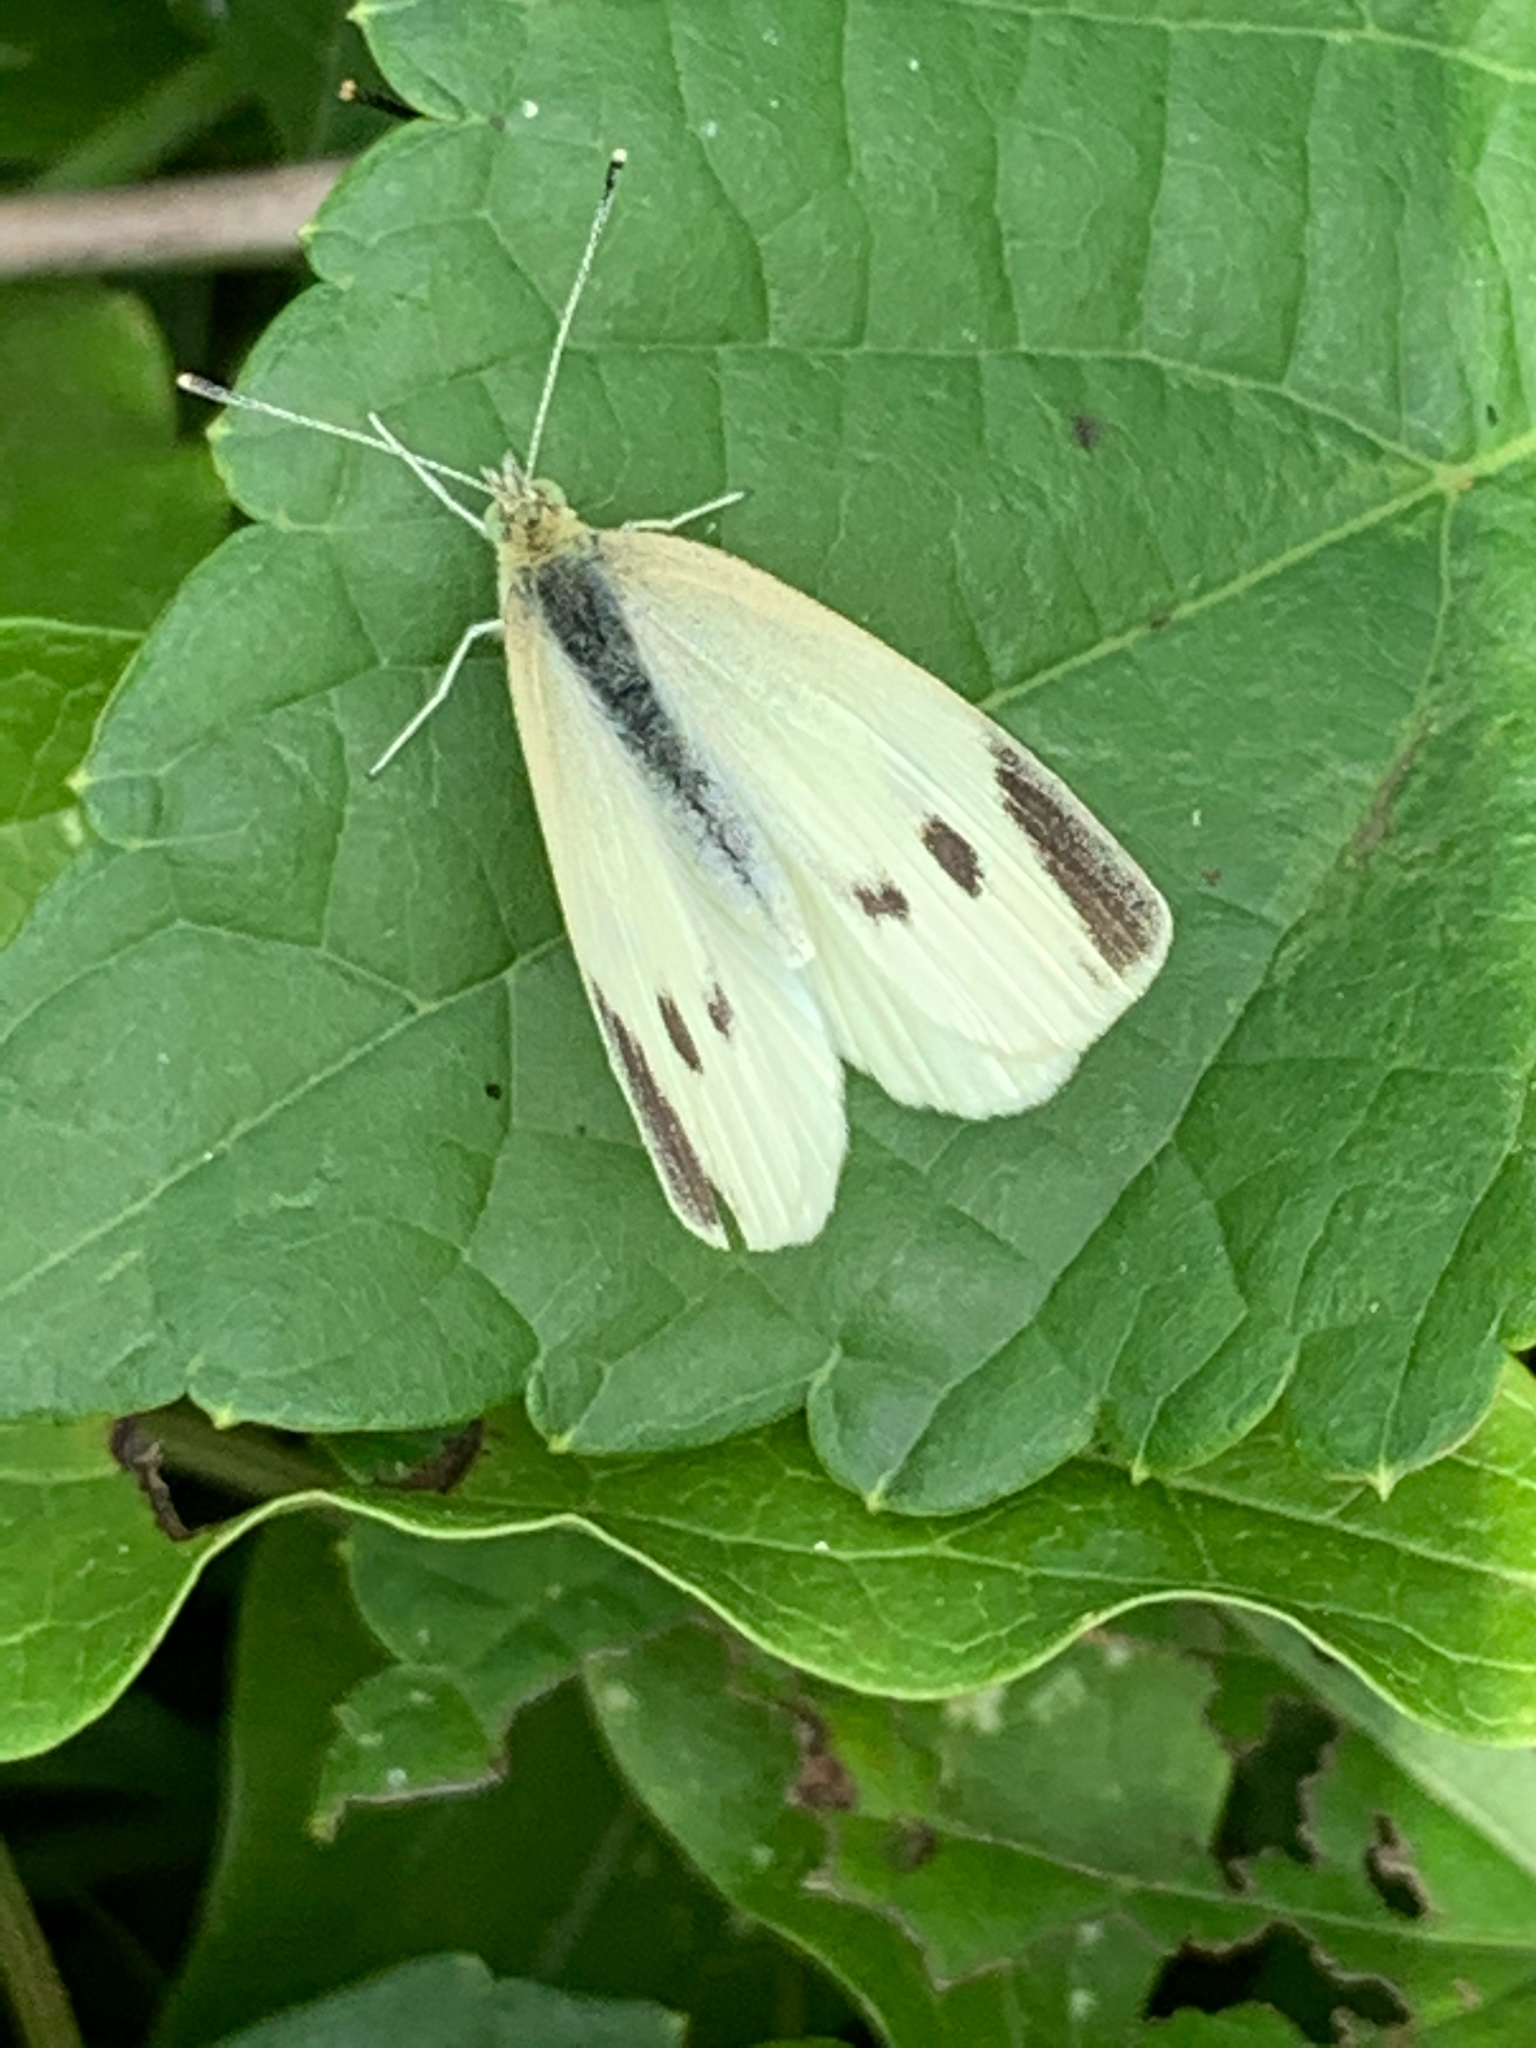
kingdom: Animalia
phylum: Arthropoda
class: Insecta
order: Lepidoptera
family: Pieridae
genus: Pieris
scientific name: Pieris rapae
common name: Small white
